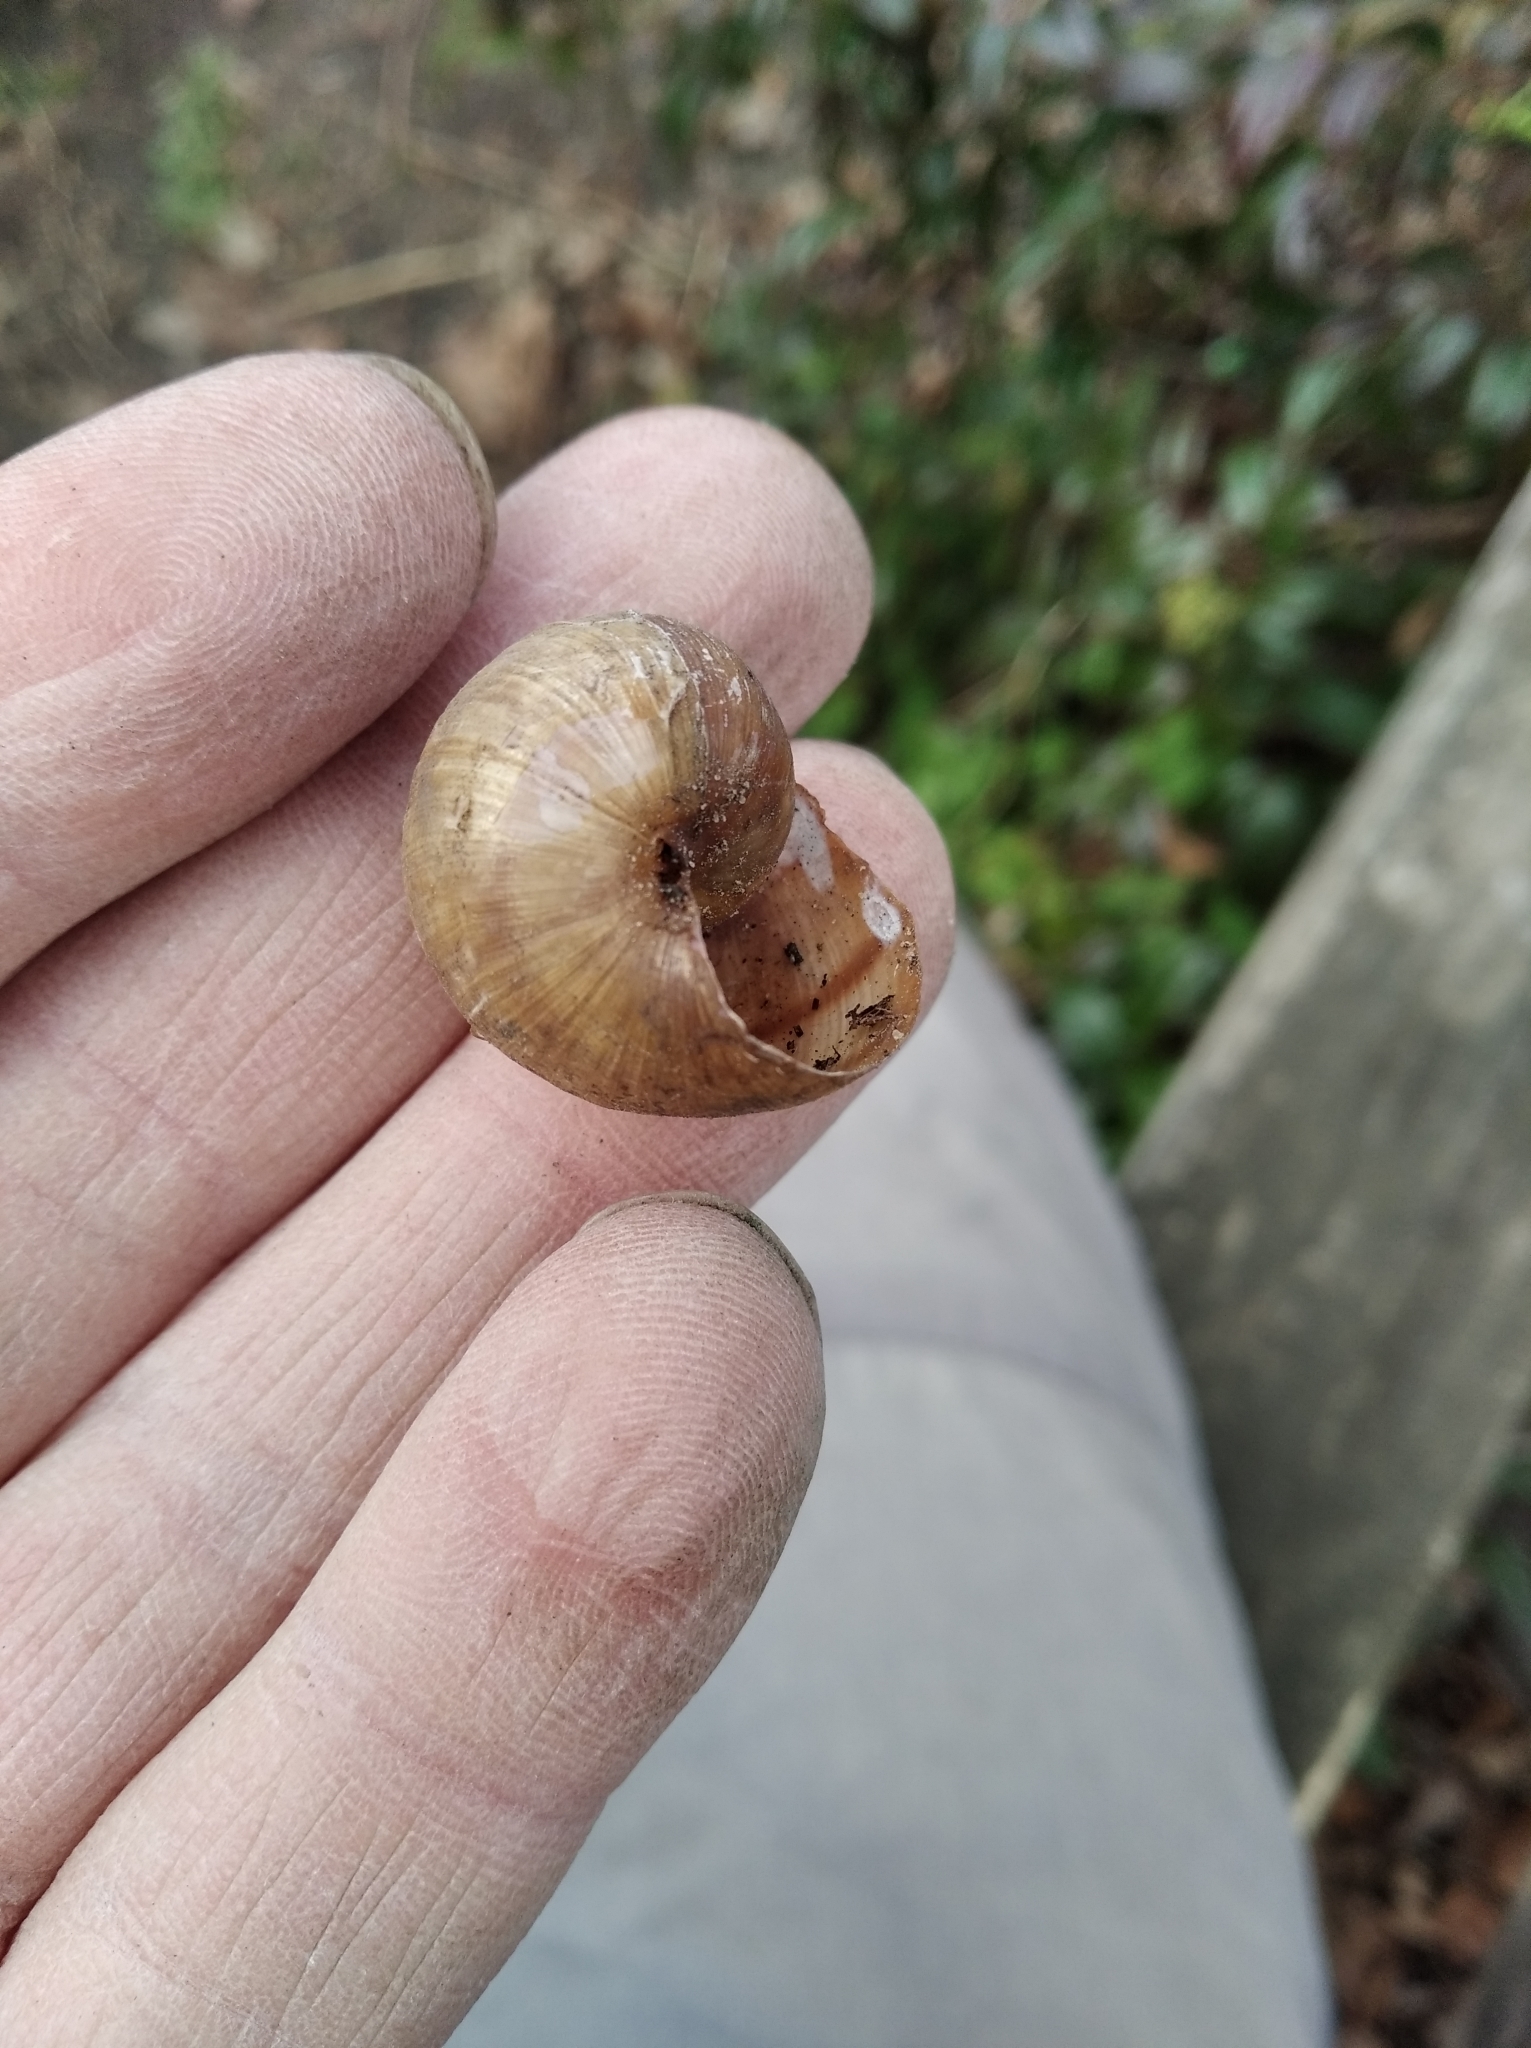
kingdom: Animalia
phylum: Mollusca
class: Gastropoda
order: Stylommatophora
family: Helicidae
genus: Helix
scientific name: Helix pomatia
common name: Roman snail
